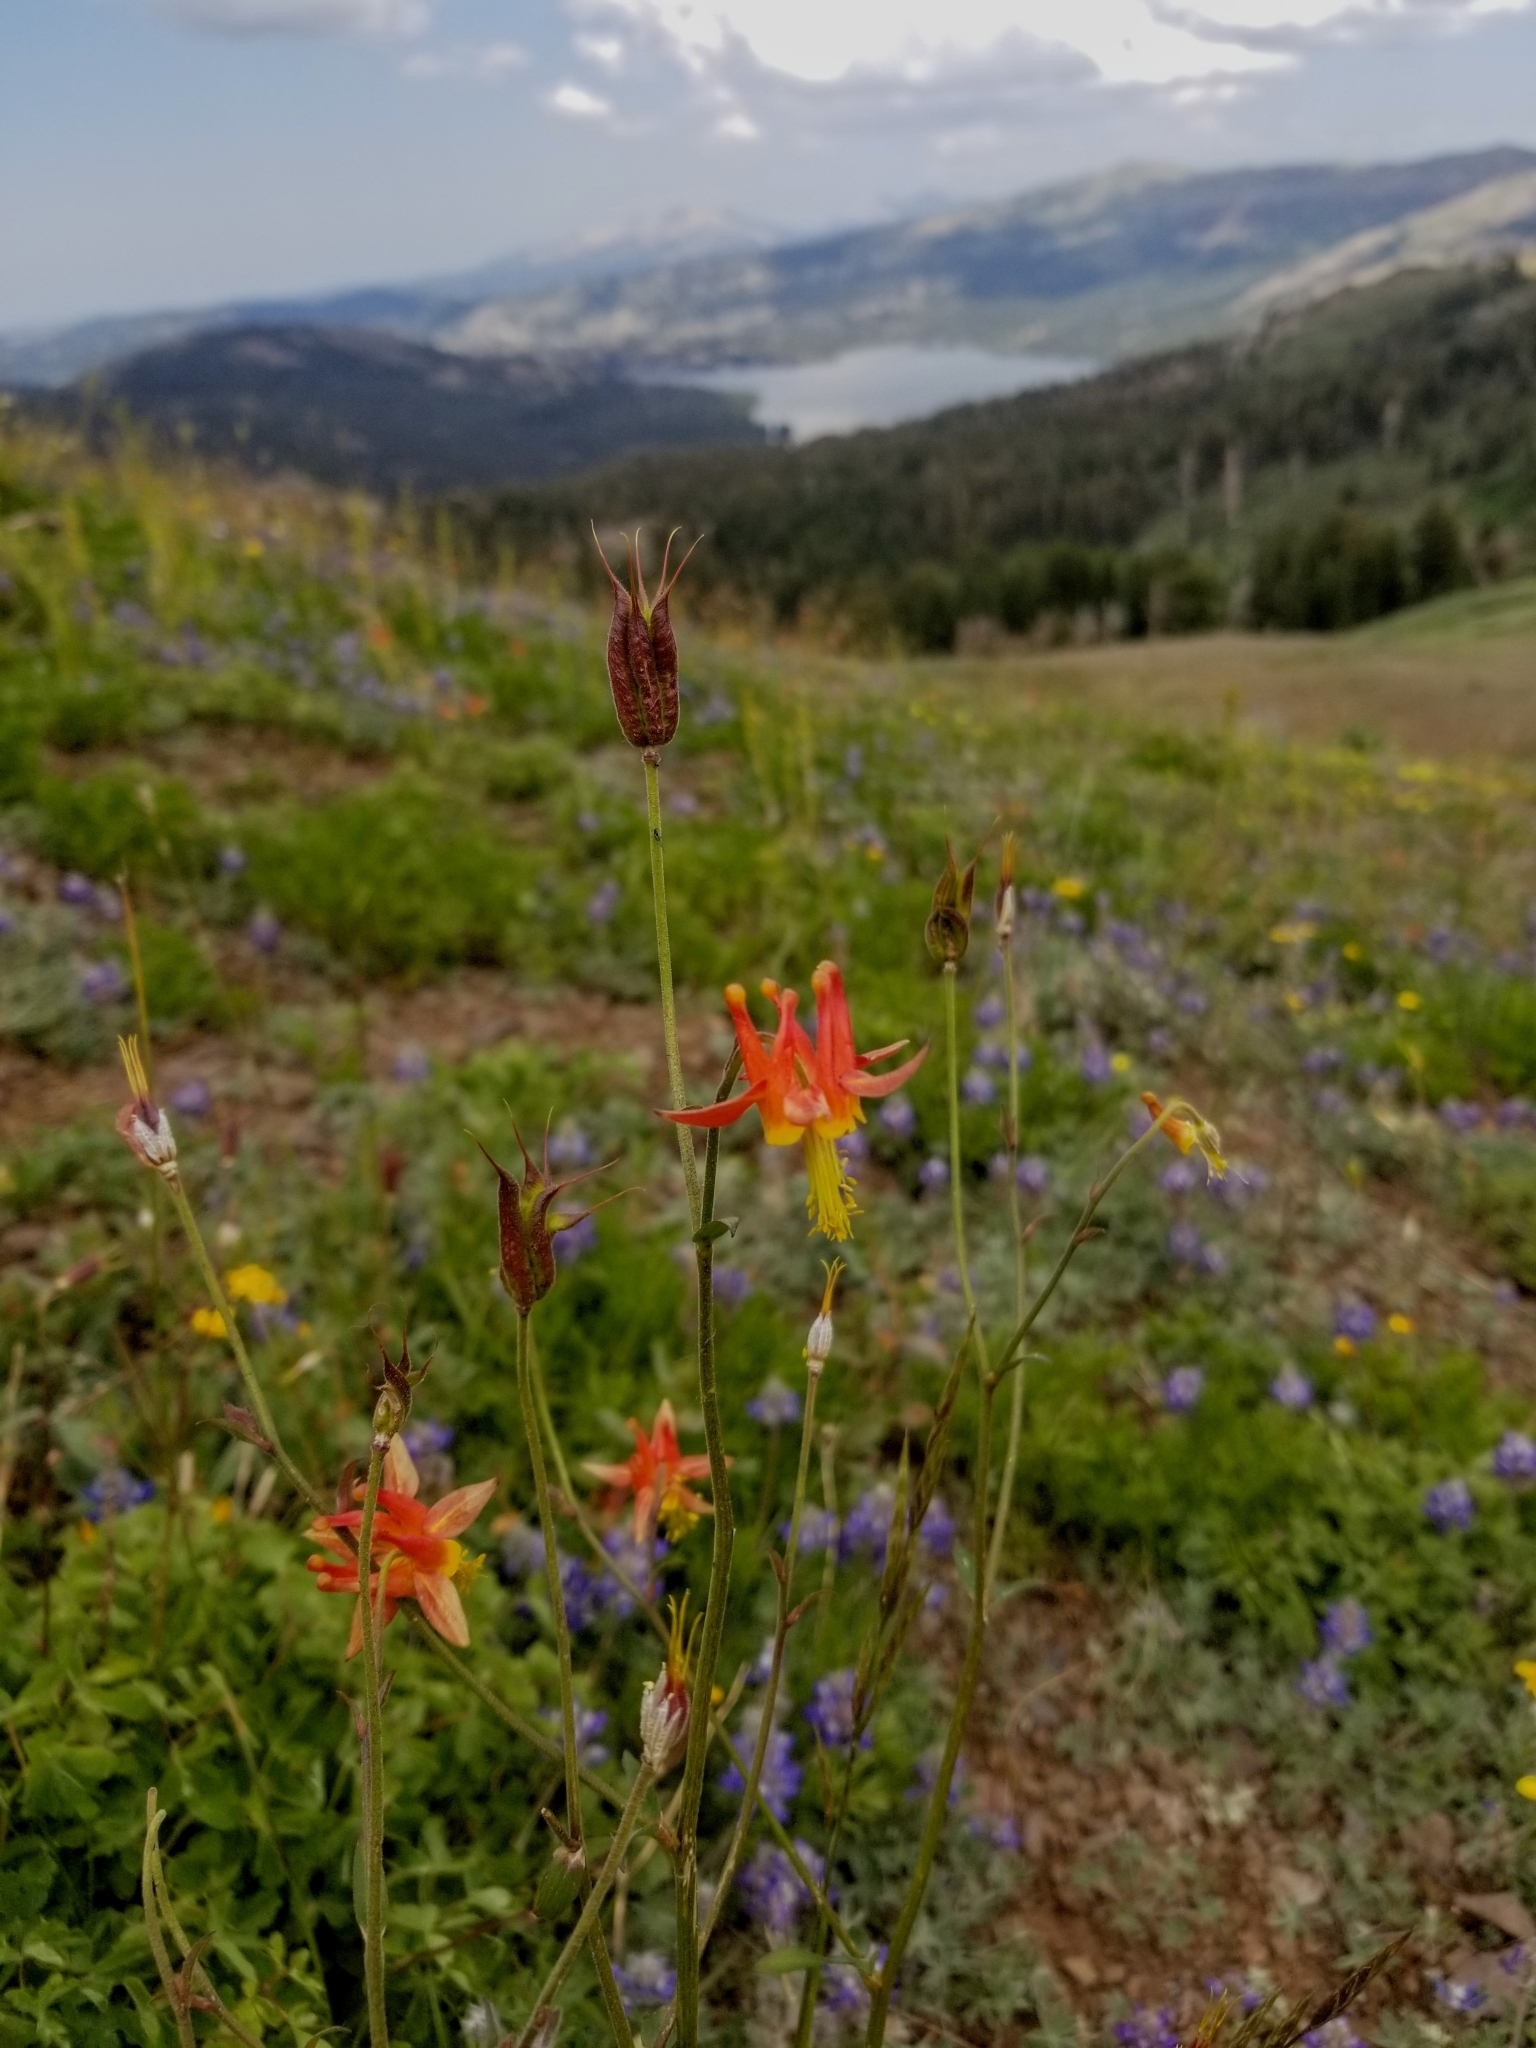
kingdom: Plantae
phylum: Tracheophyta
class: Magnoliopsida
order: Ranunculales
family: Ranunculaceae
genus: Aquilegia
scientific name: Aquilegia formosa
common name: Sitka columbine
